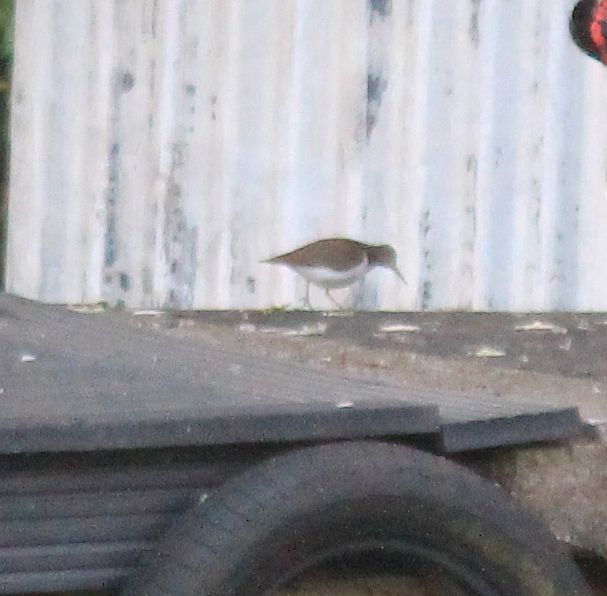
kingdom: Animalia
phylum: Chordata
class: Aves
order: Charadriiformes
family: Scolopacidae
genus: Actitis
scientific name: Actitis hypoleucos
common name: Common sandpiper
